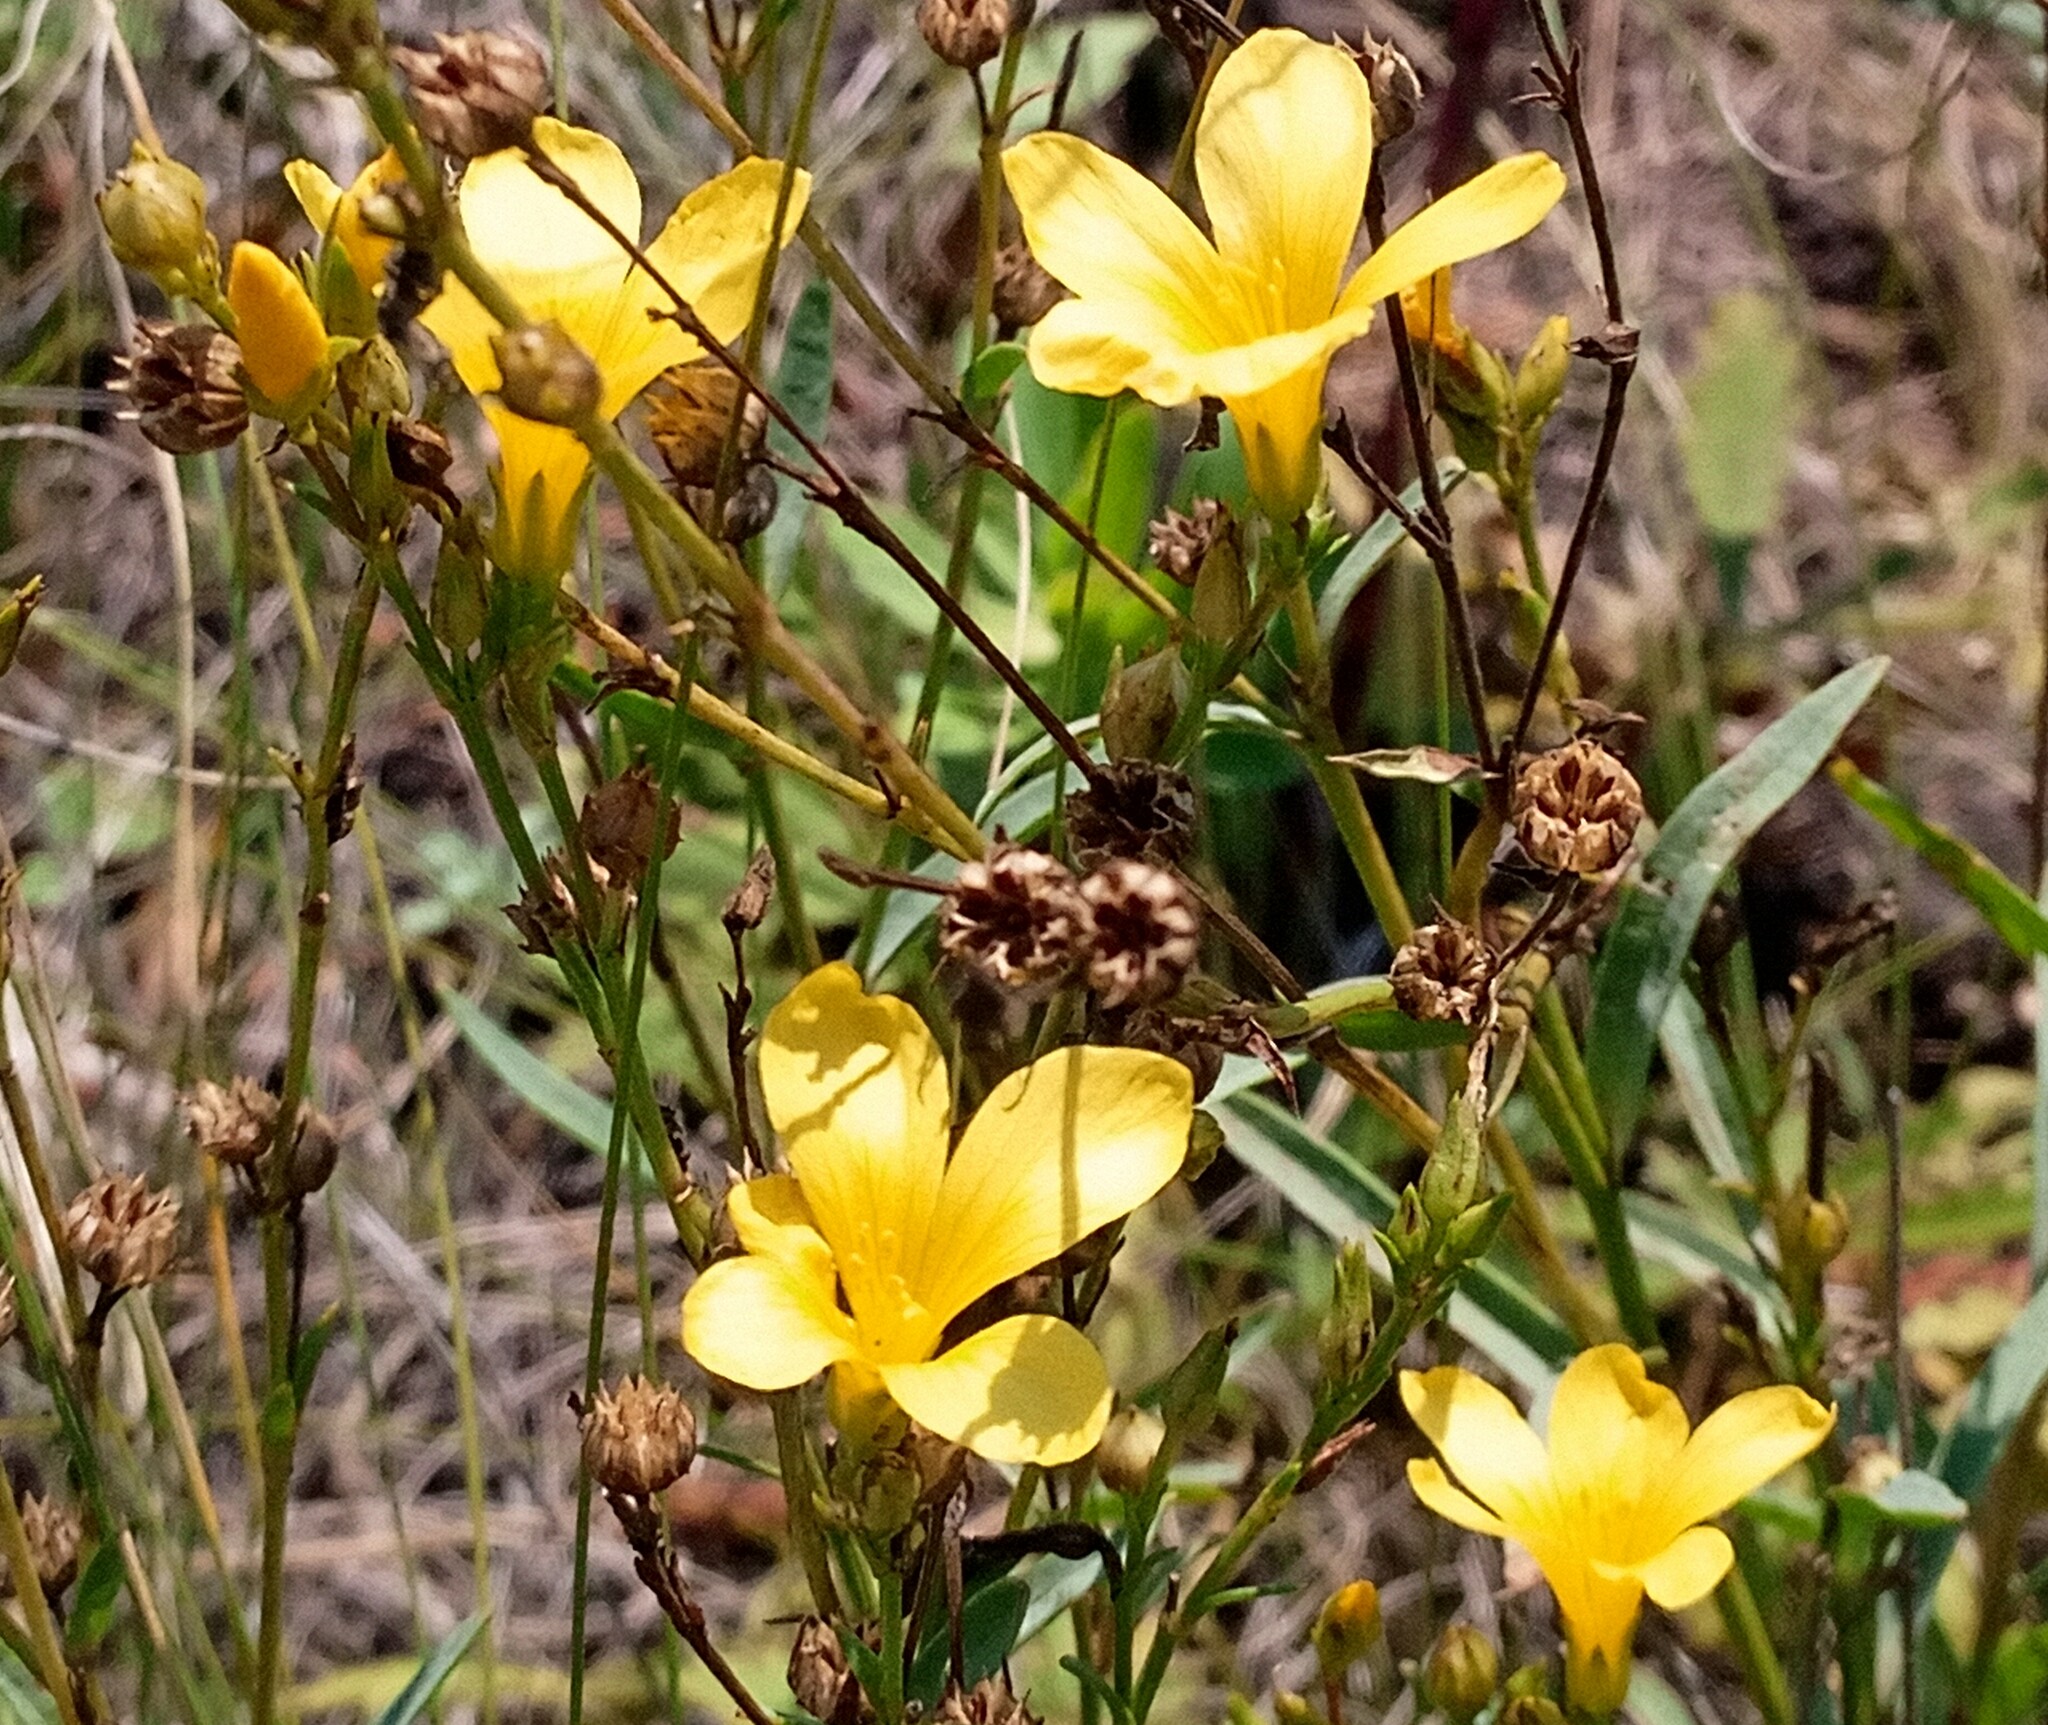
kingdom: Plantae
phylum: Tracheophyta
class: Magnoliopsida
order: Malpighiales
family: Linaceae
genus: Linum
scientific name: Linum flavum
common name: Yellow flax
